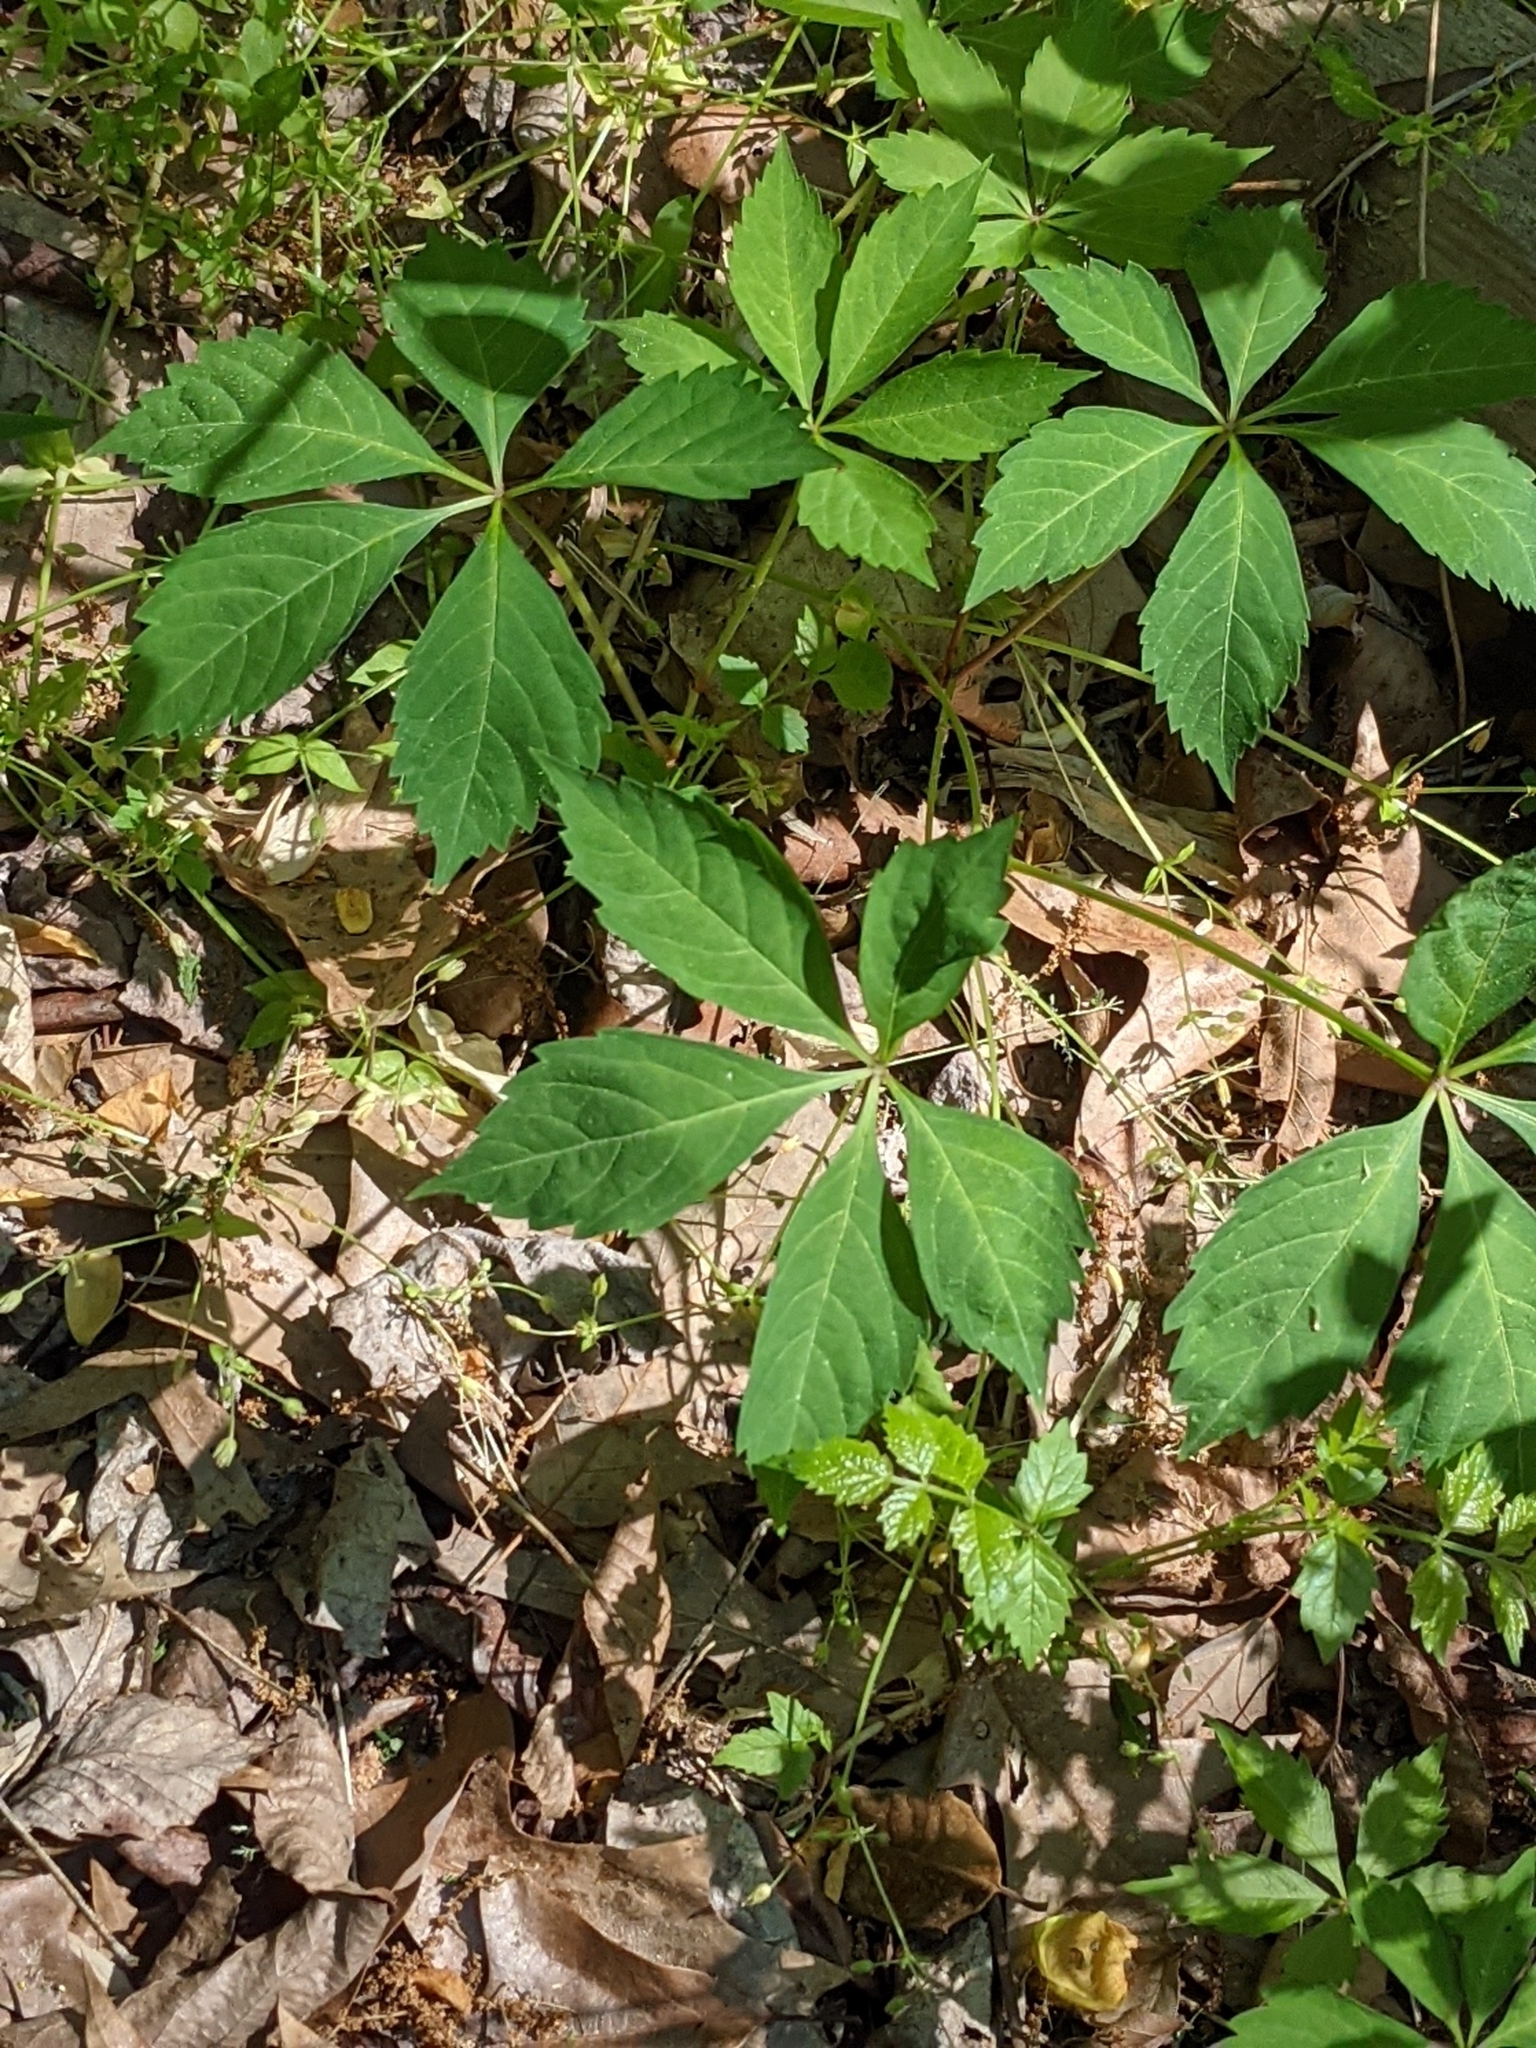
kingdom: Plantae
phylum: Tracheophyta
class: Magnoliopsida
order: Vitales
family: Vitaceae
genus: Parthenocissus
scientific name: Parthenocissus quinquefolia
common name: Virginia-creeper
